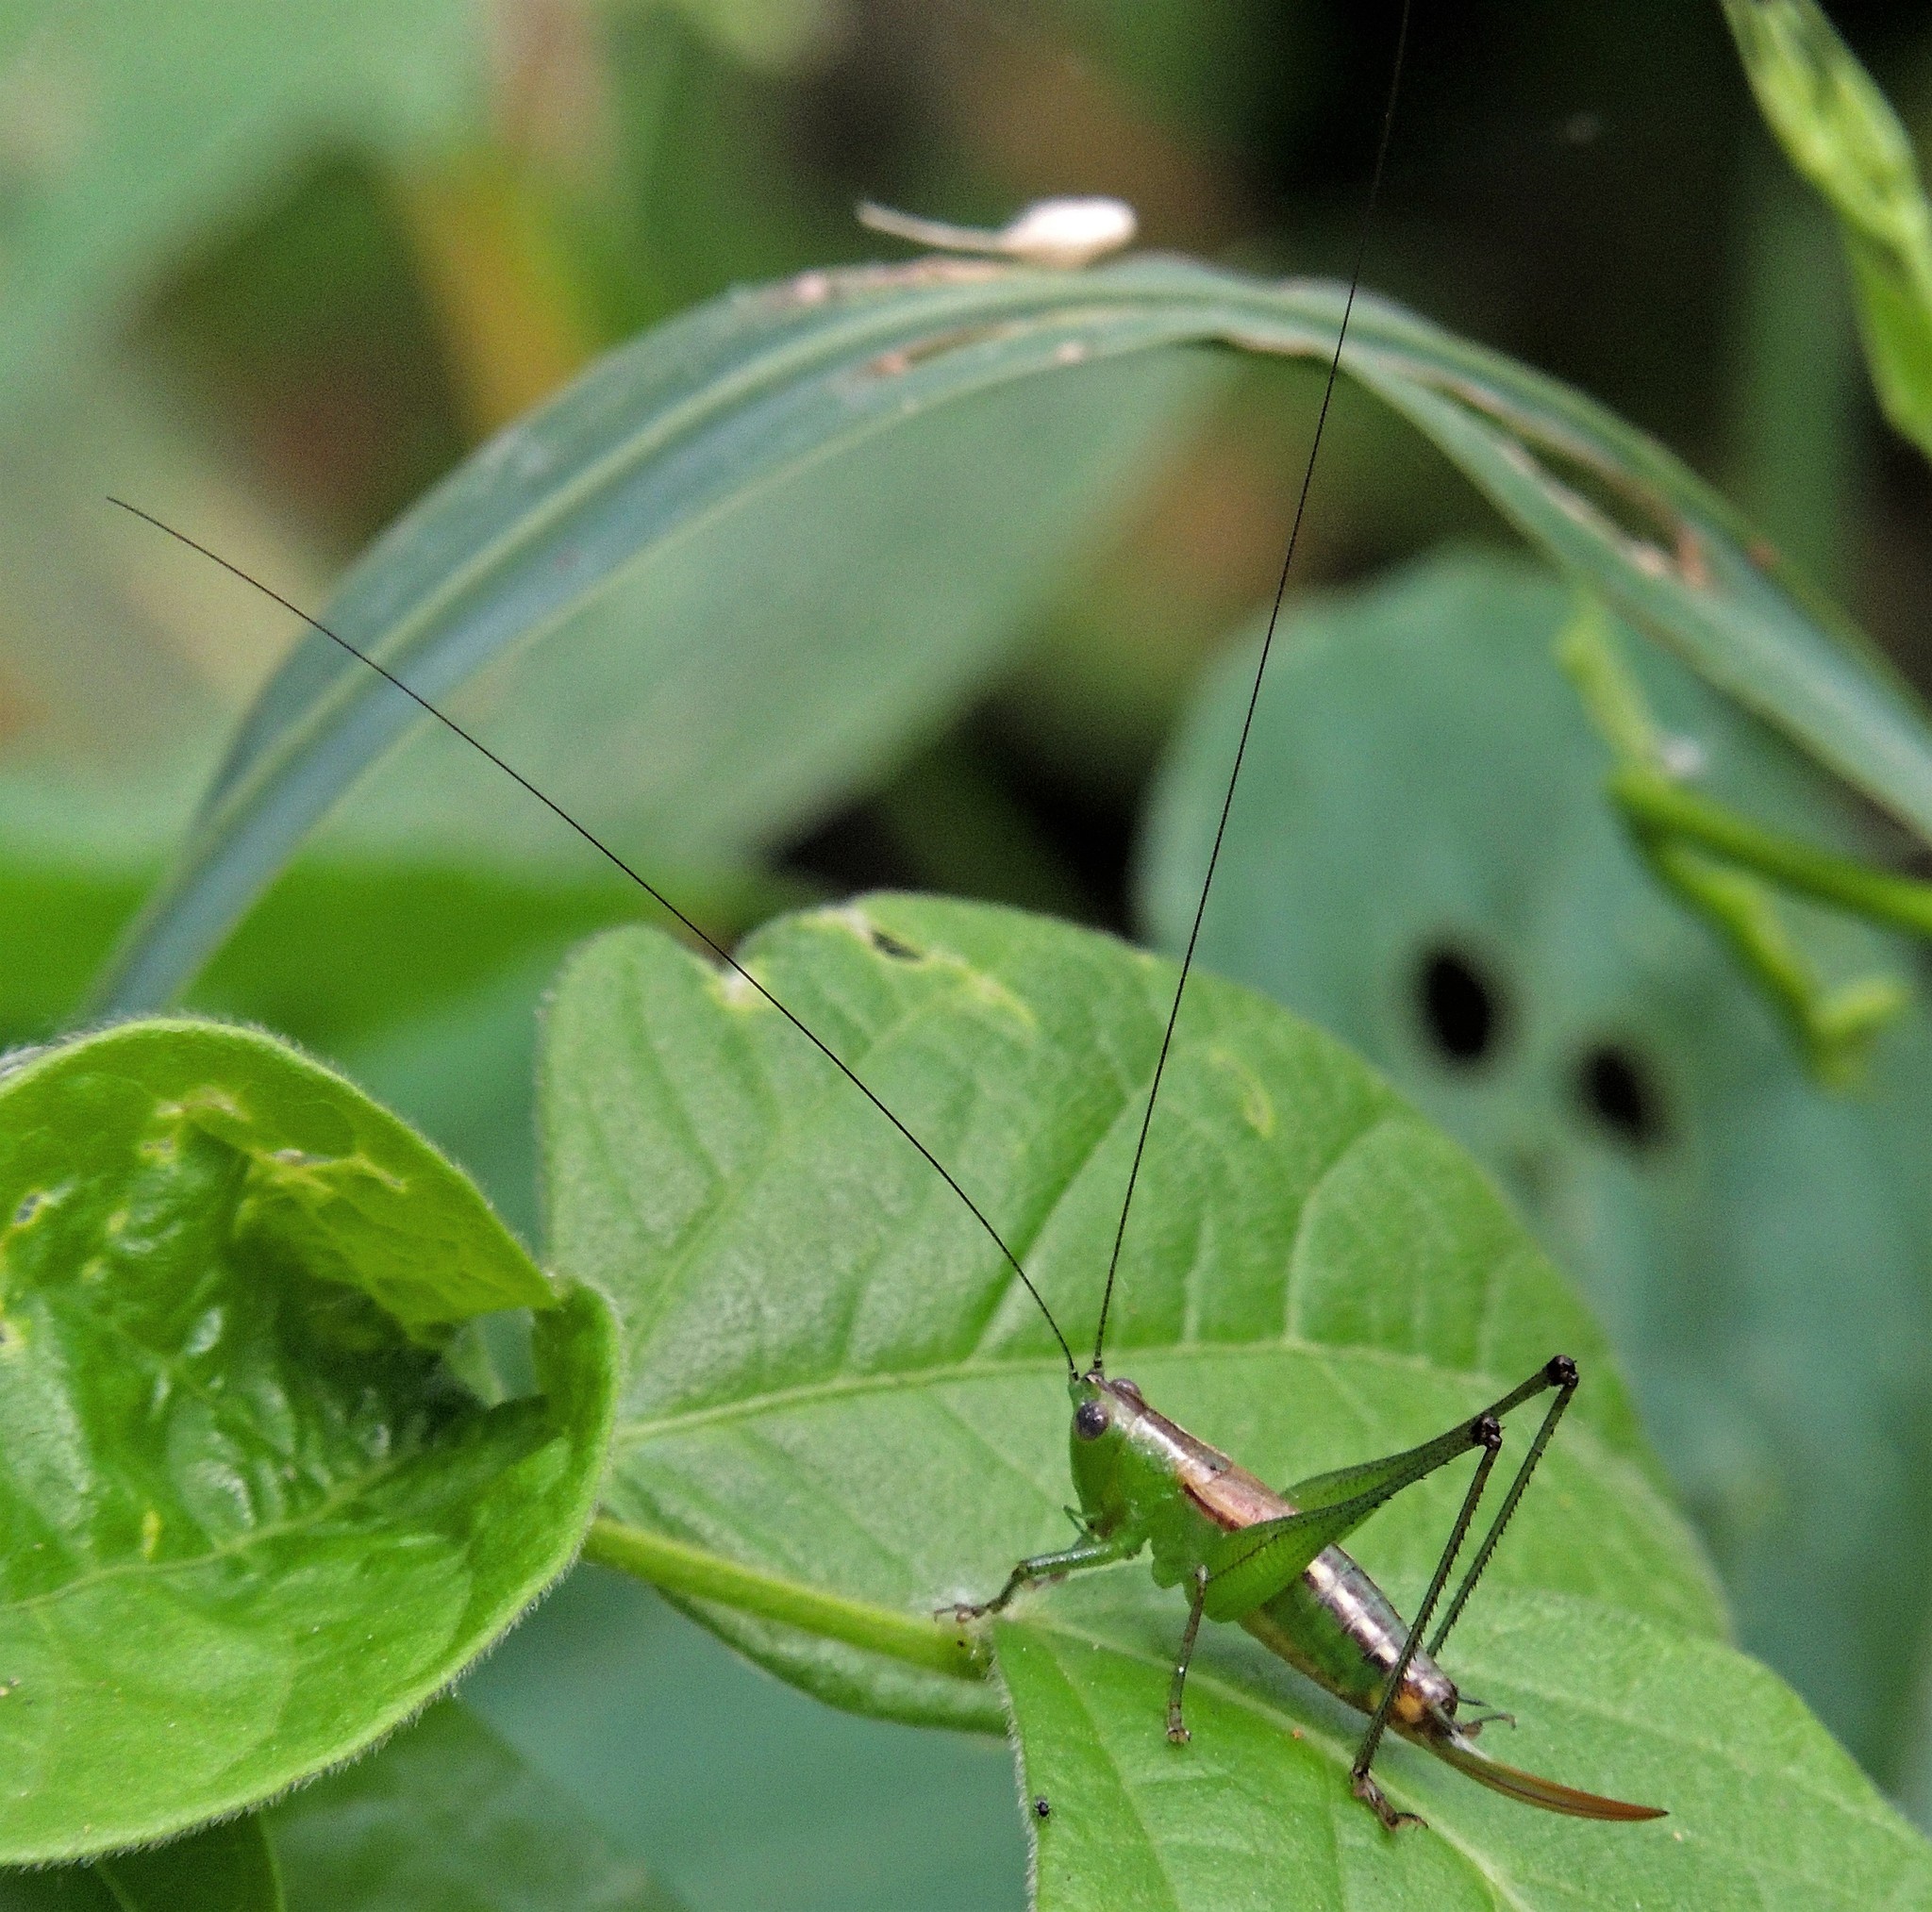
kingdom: Animalia
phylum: Arthropoda
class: Insecta
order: Orthoptera
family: Tettigoniidae
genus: Conocephalus
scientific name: Conocephalus ochrotelus
